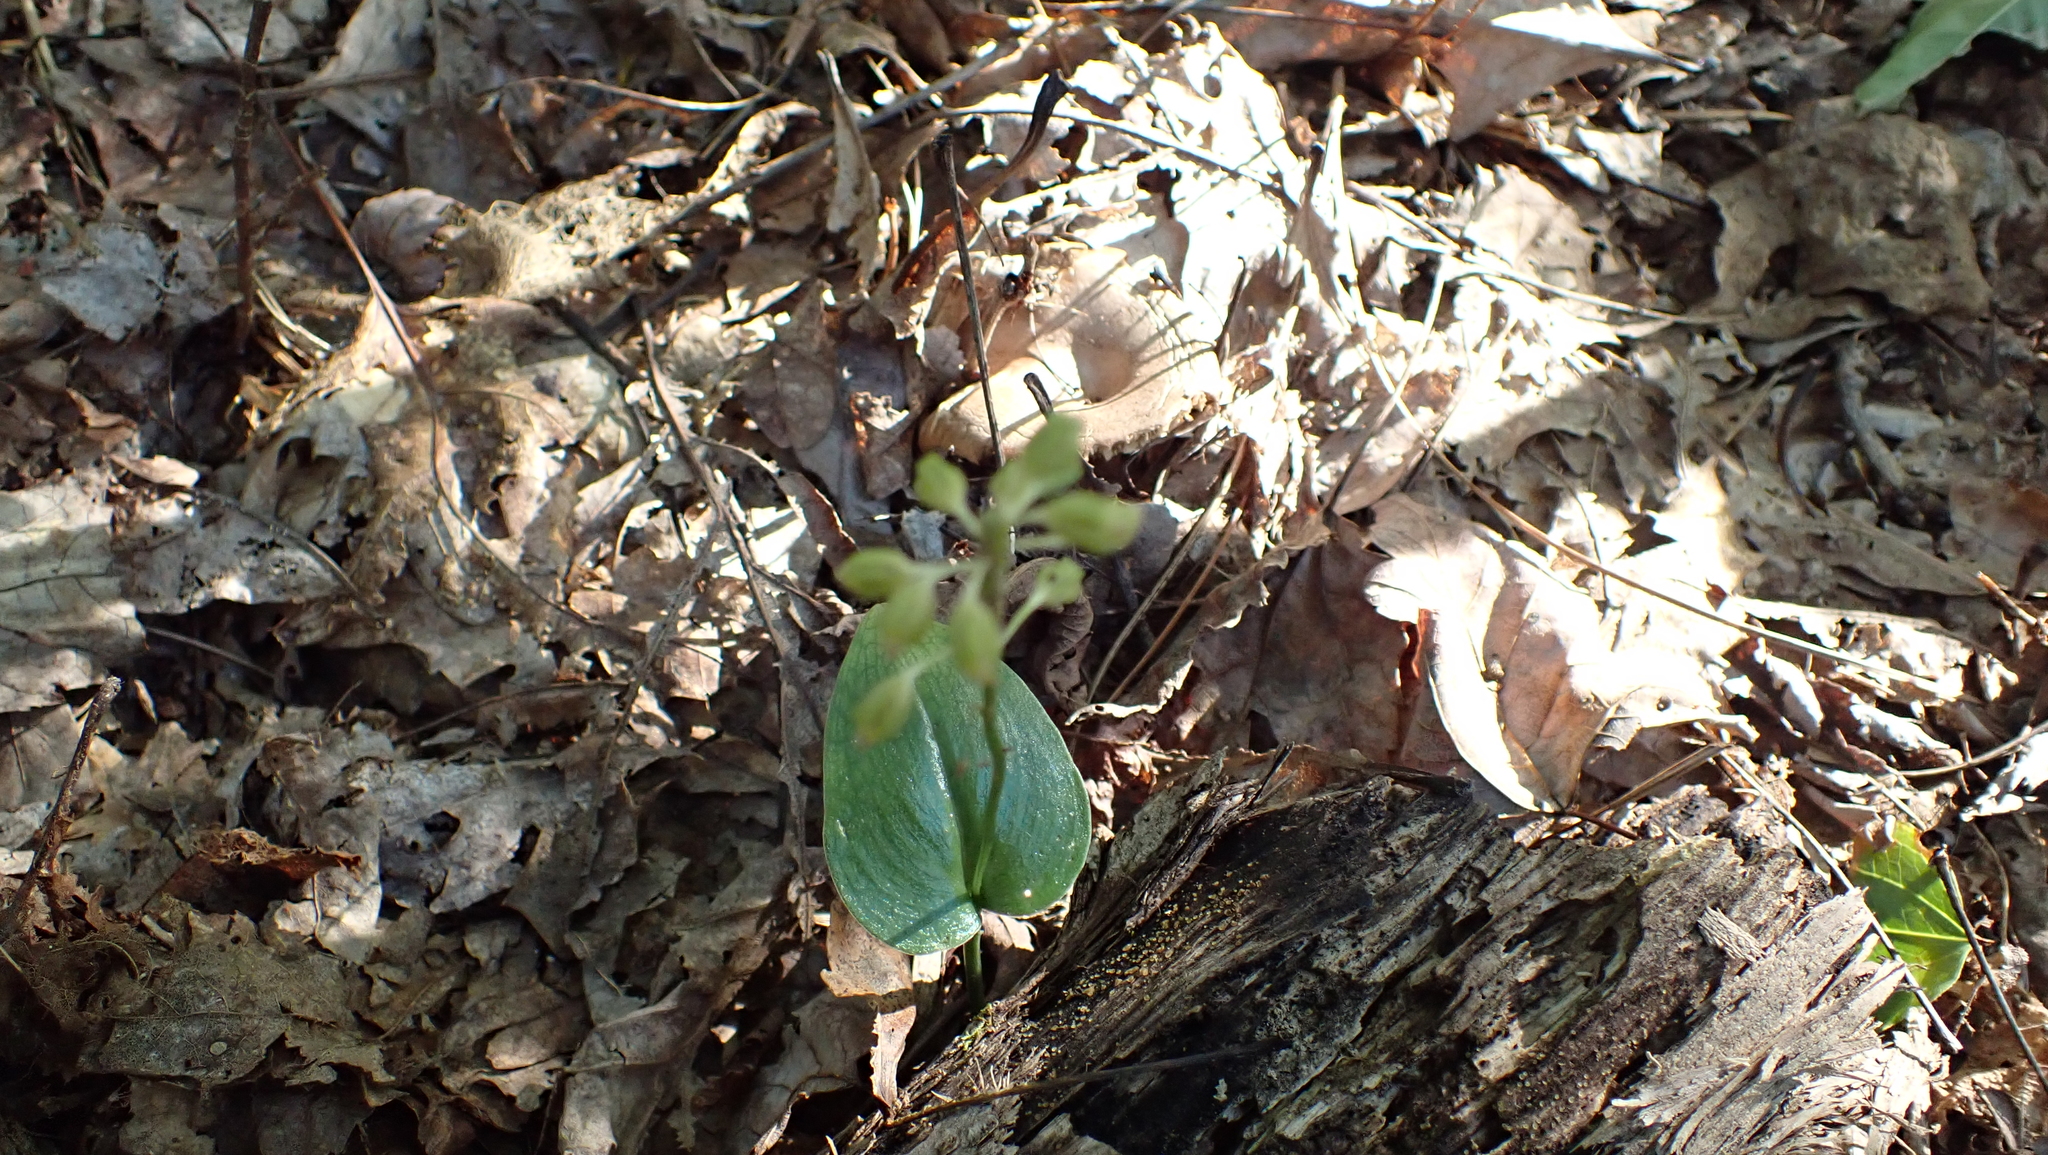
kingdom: Plantae
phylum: Tracheophyta
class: Liliopsida
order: Asparagales
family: Orchidaceae
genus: Malaxis
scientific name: Malaxis unifolia
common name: Green adder's-mouth
